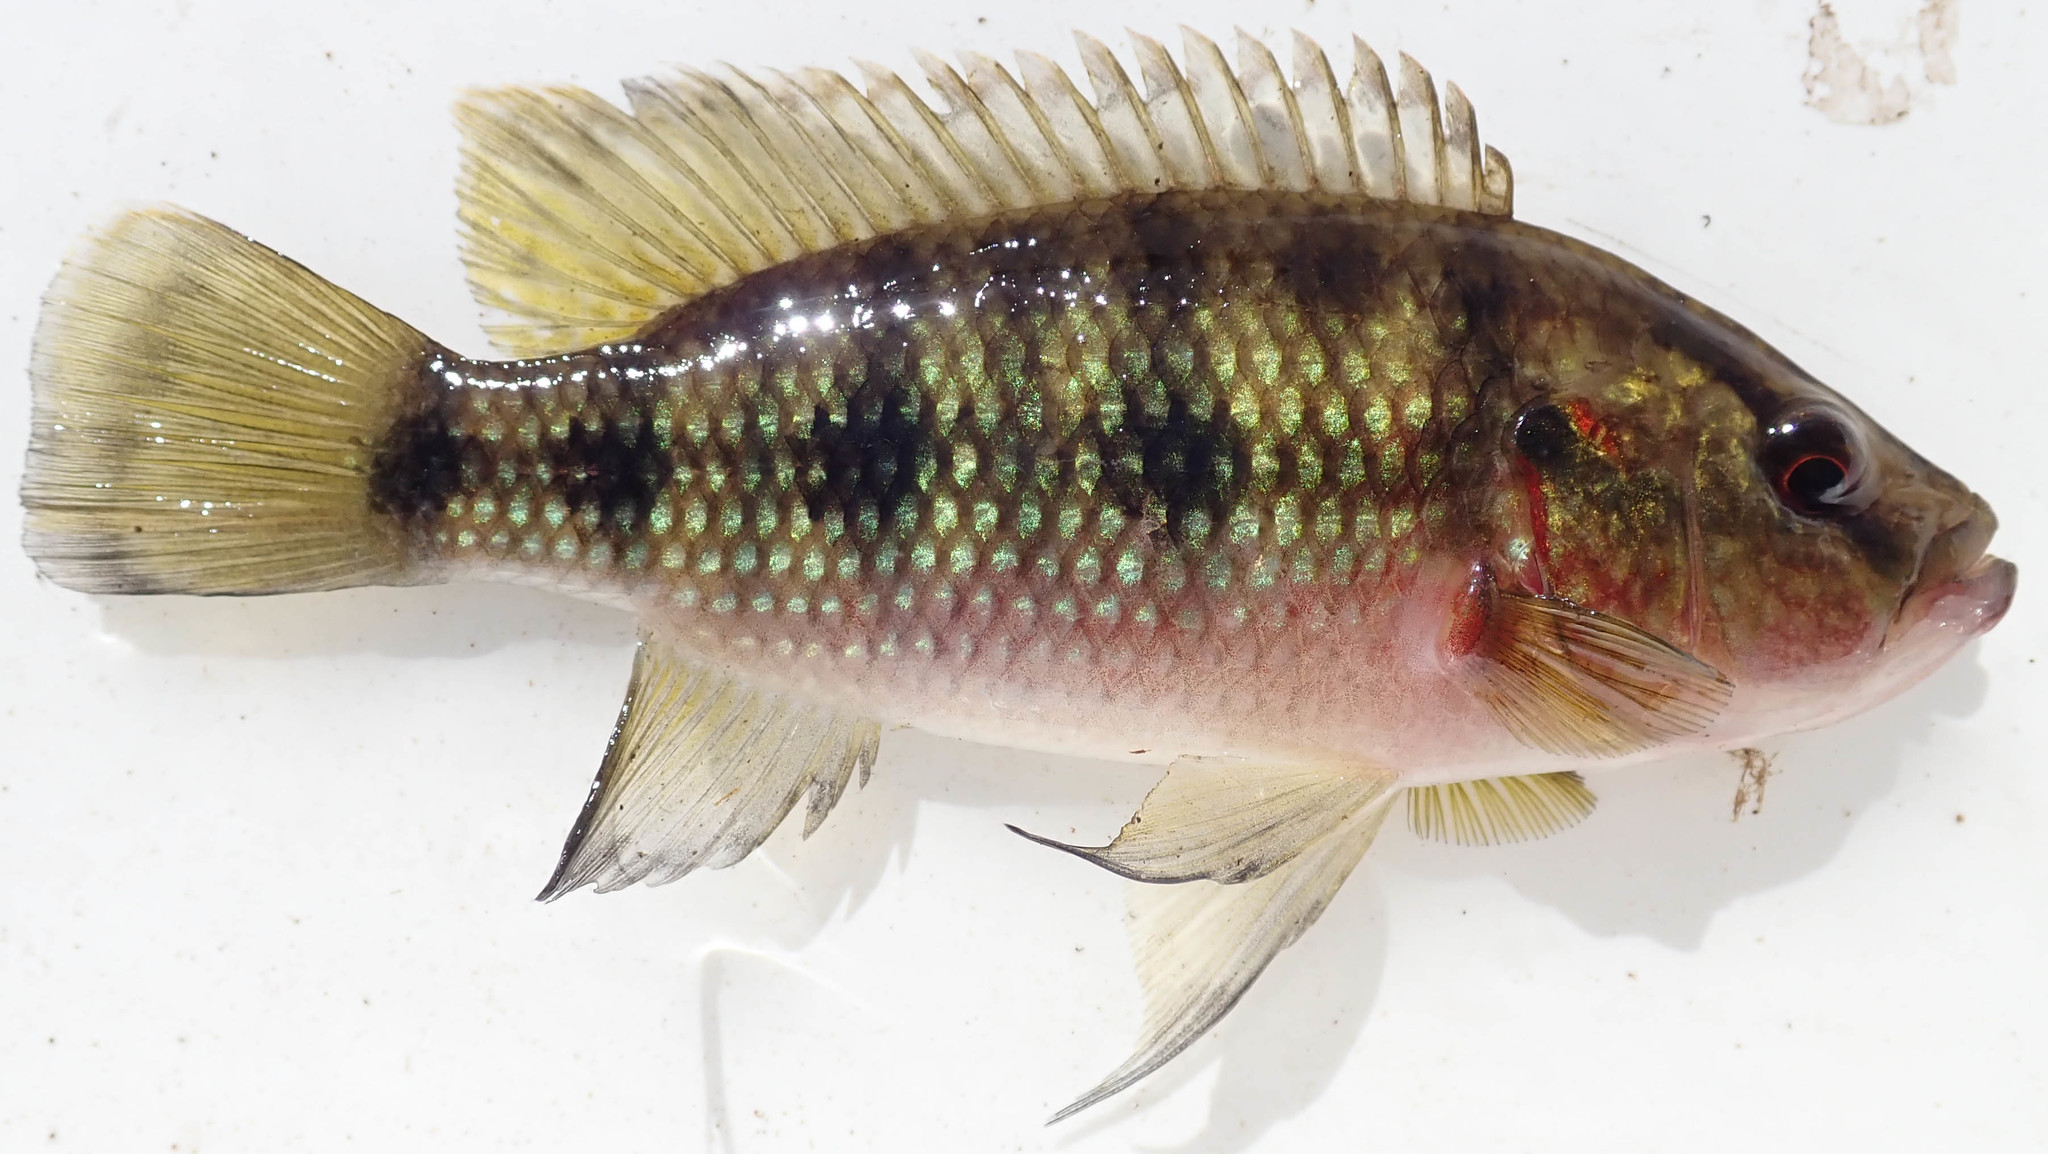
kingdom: Animalia
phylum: Chordata
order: Perciformes
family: Cichlidae
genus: Hemichromis
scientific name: Hemichromis elongatus
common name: Jewel cichlid
